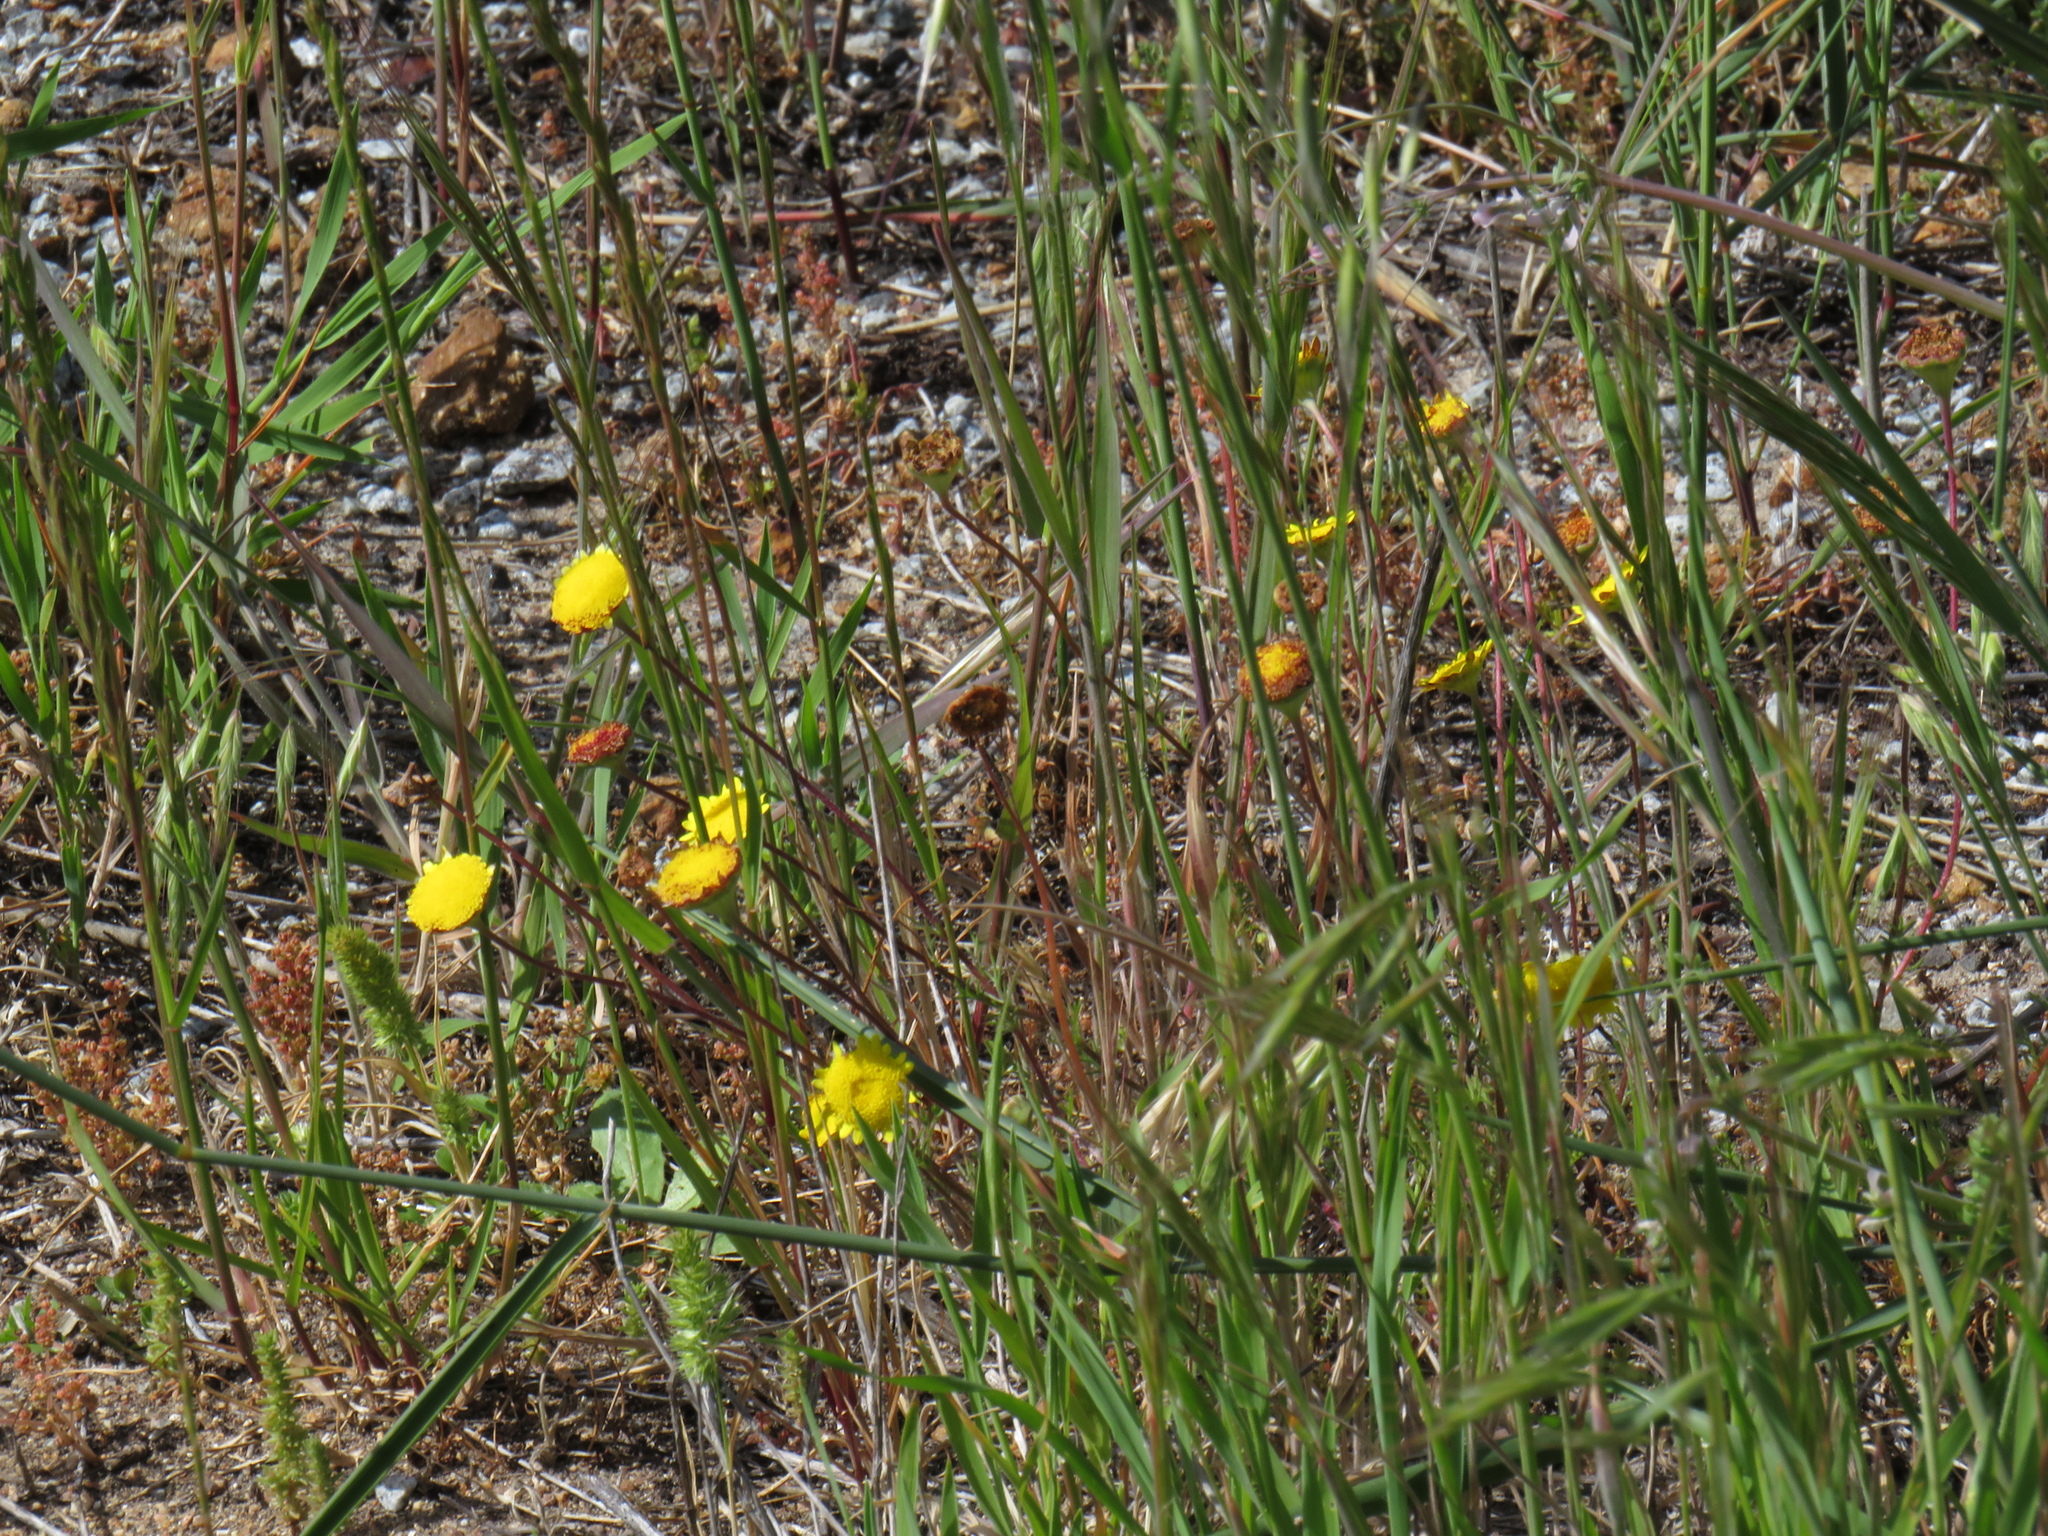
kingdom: Plantae
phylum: Tracheophyta
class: Magnoliopsida
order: Asterales
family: Asteraceae
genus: Cotula
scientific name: Cotula pruinosa
